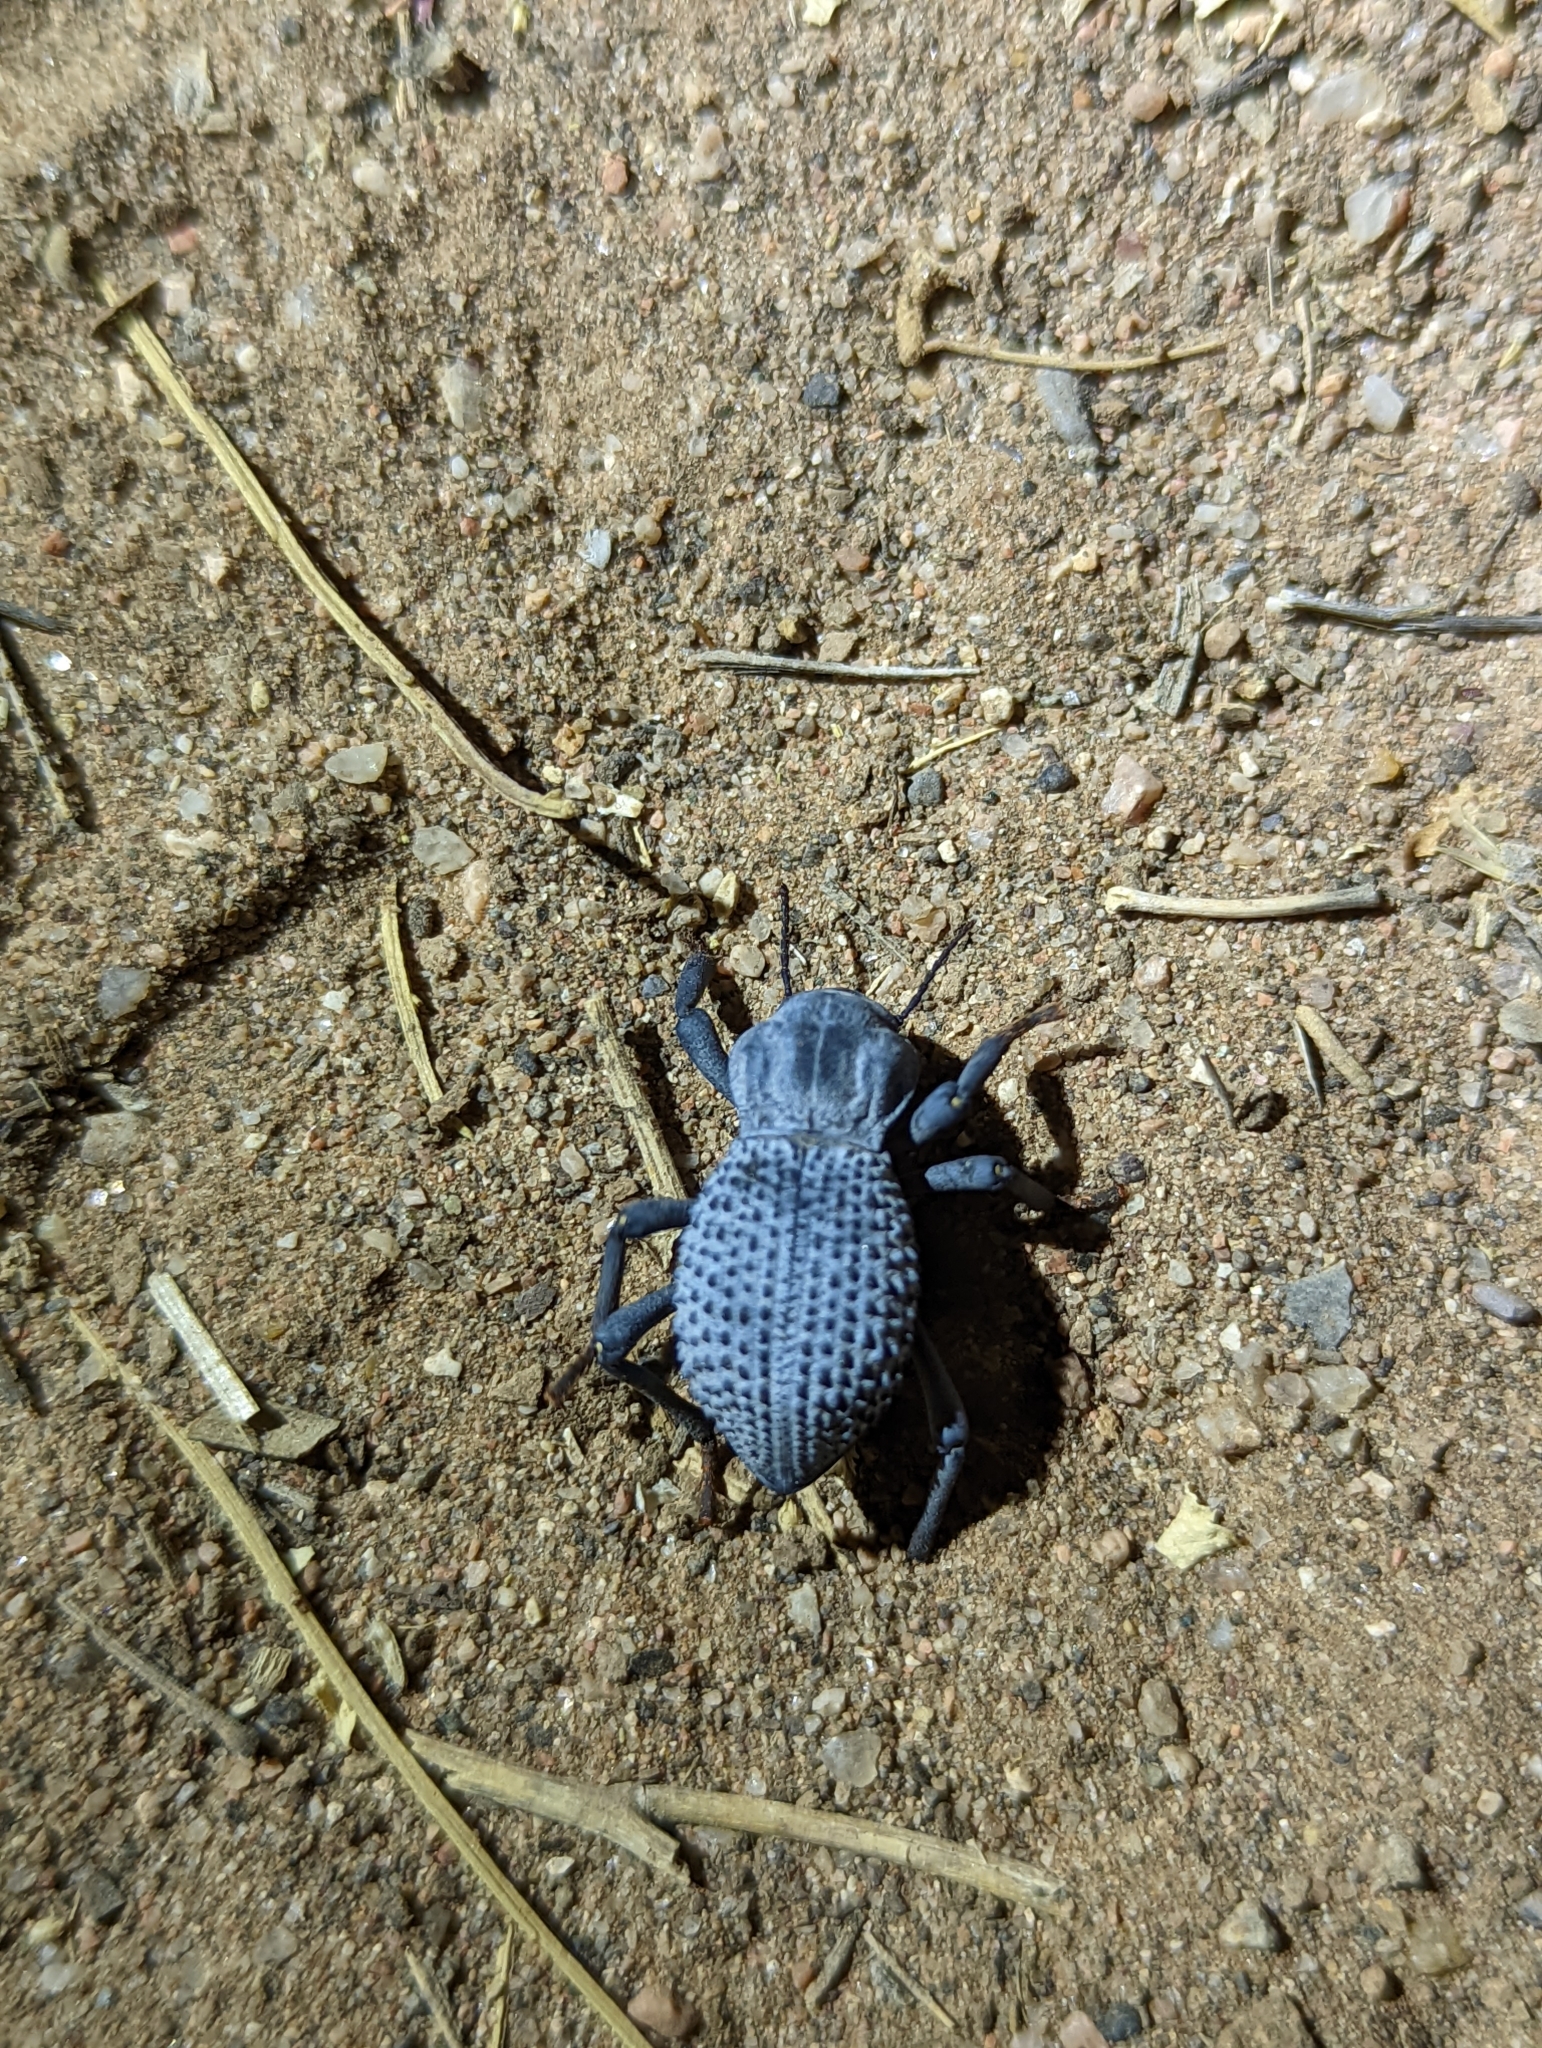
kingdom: Animalia
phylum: Arthropoda
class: Insecta
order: Coleoptera
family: Tenebrionidae
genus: Asbolus
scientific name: Asbolus verrucosus
